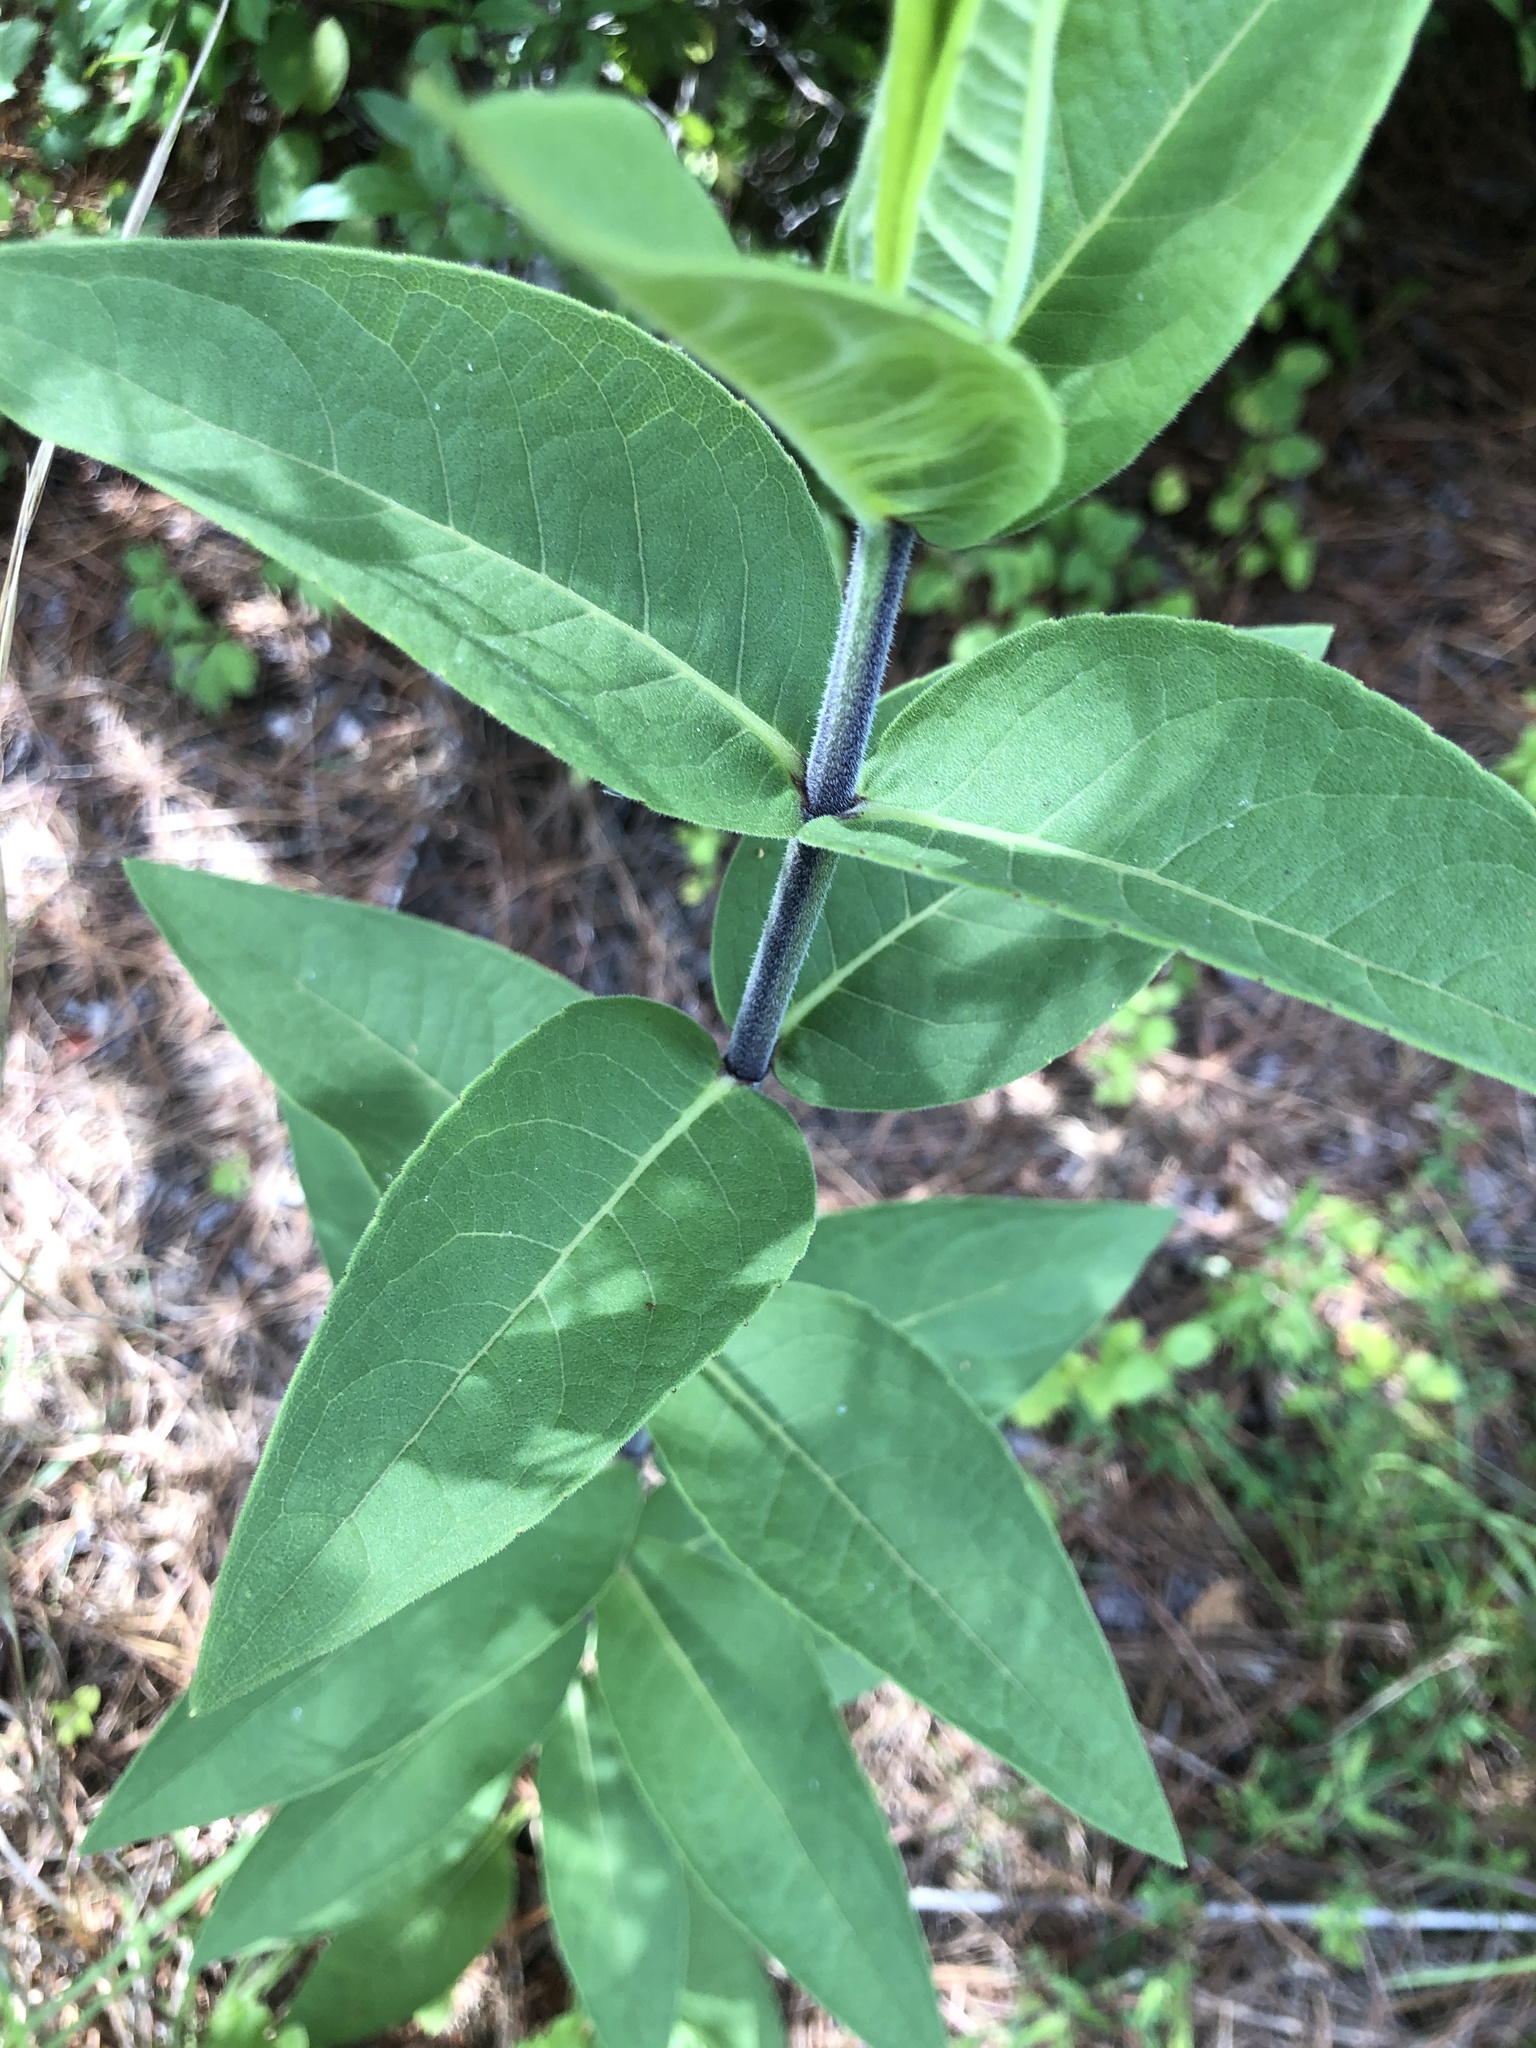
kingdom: Plantae
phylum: Tracheophyta
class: Magnoliopsida
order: Asterales
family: Asteraceae
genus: Silphium
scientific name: Silphium integrifolium
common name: Whole-leaf rosinweed
